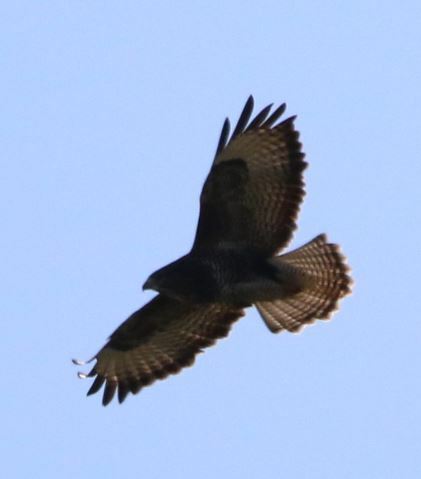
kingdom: Animalia
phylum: Chordata
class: Aves
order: Accipitriformes
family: Accipitridae
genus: Buteo
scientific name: Buteo buteo
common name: Common buzzard
